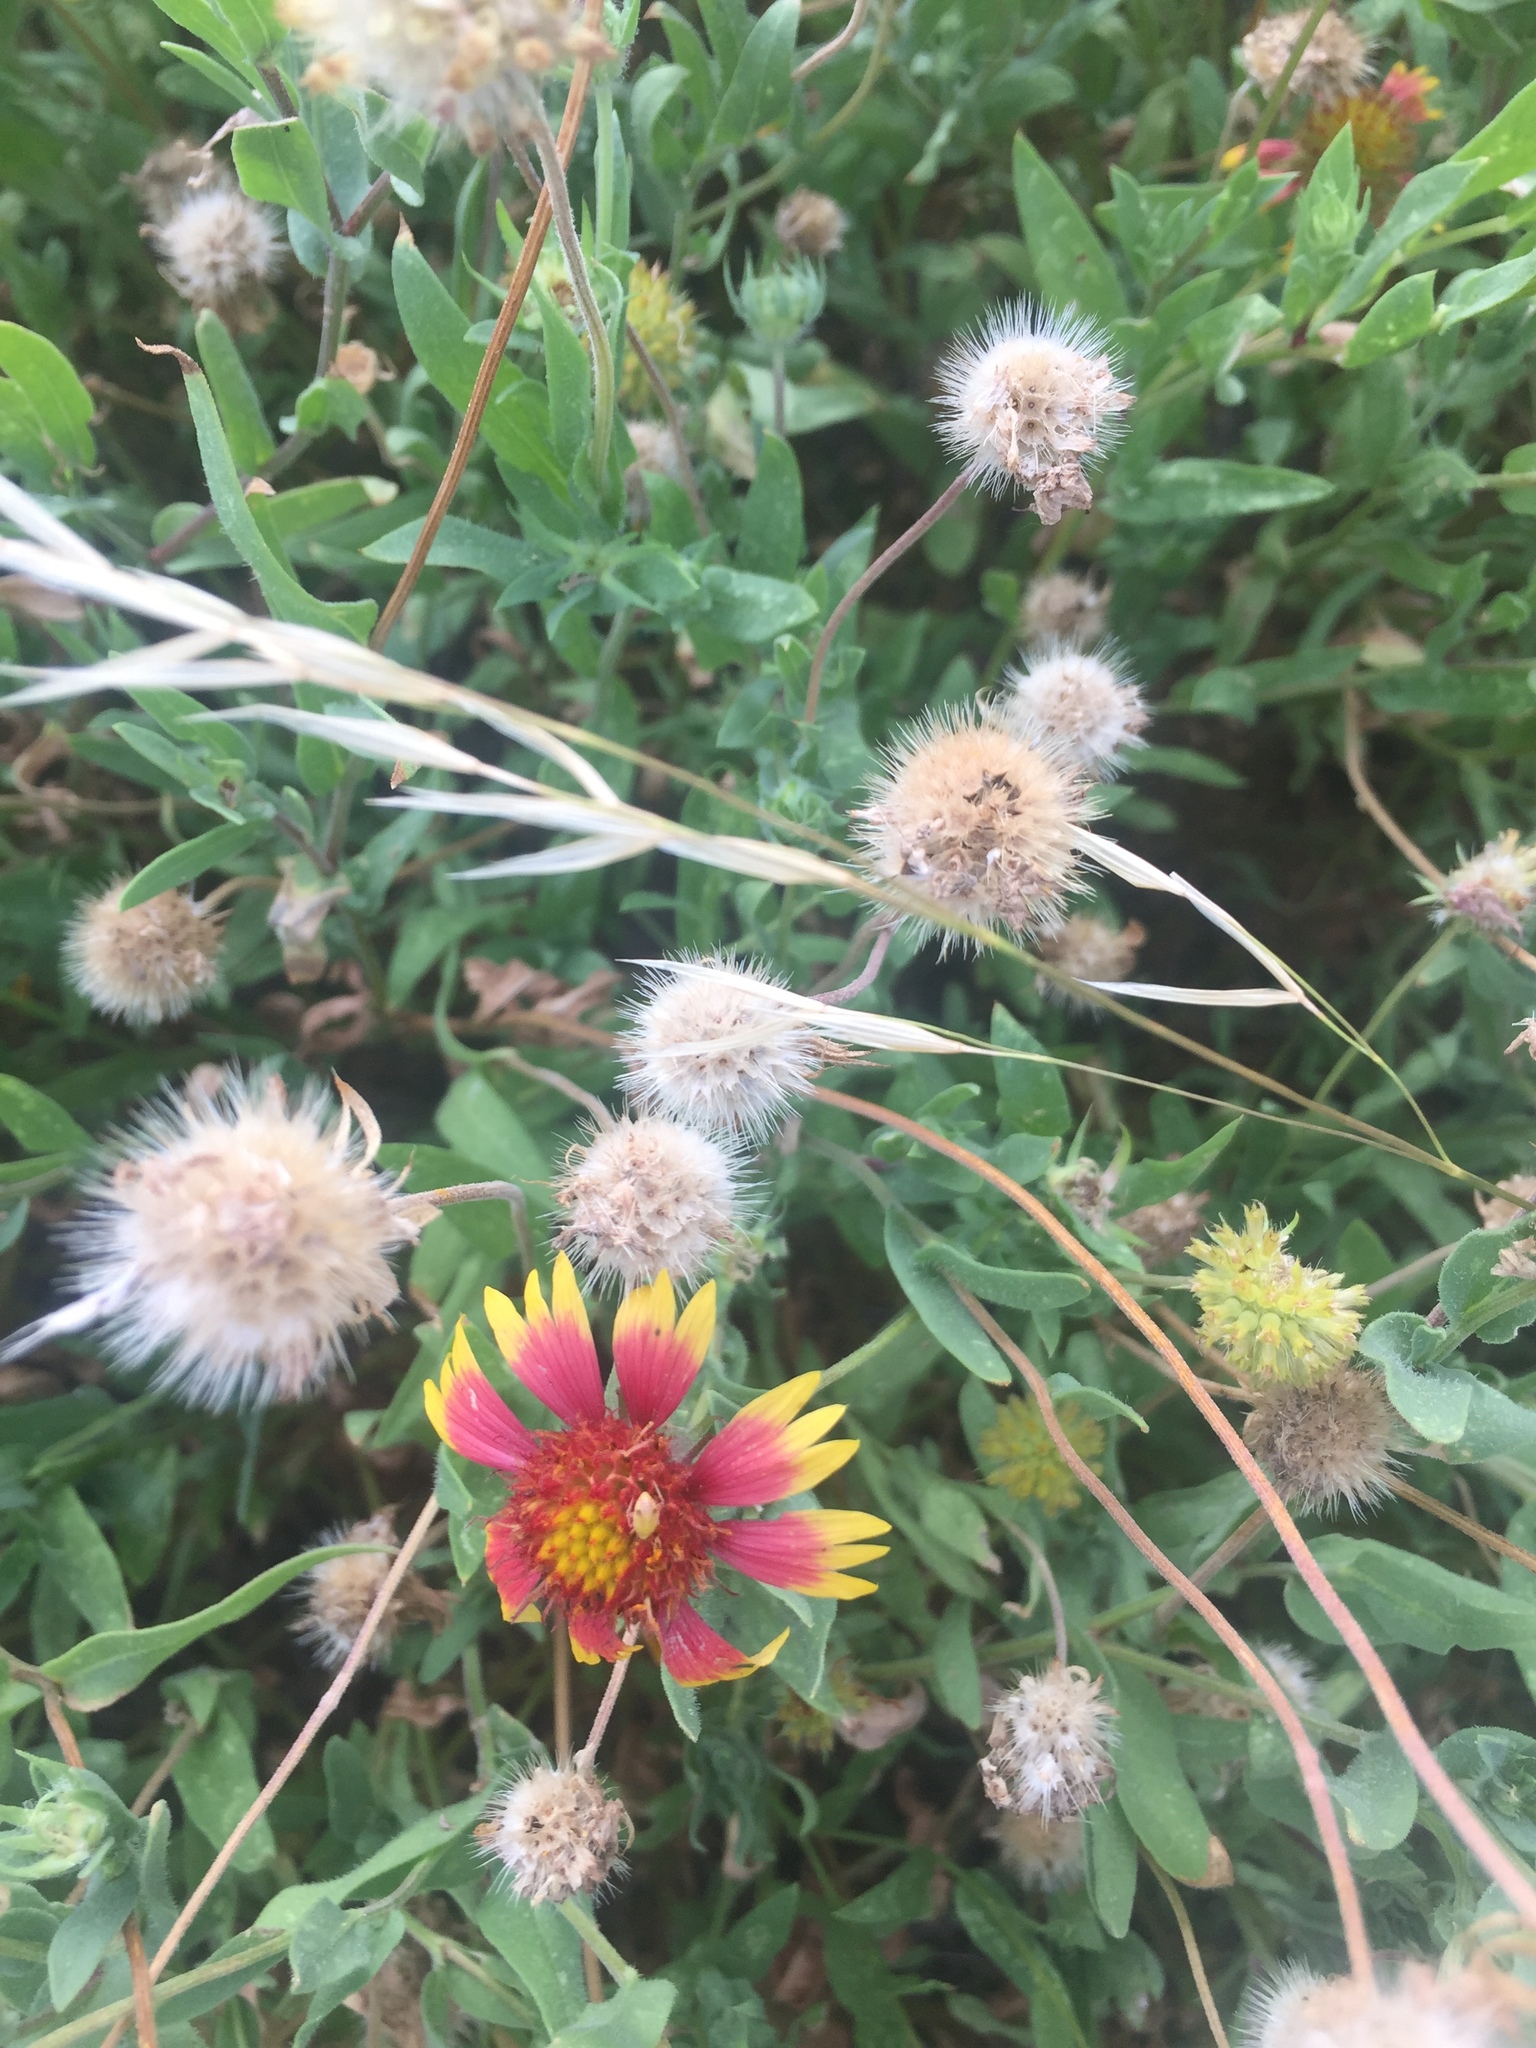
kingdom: Plantae
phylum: Tracheophyta
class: Magnoliopsida
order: Asterales
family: Asteraceae
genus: Gaillardia
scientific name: Gaillardia pulchella
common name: Firewheel
